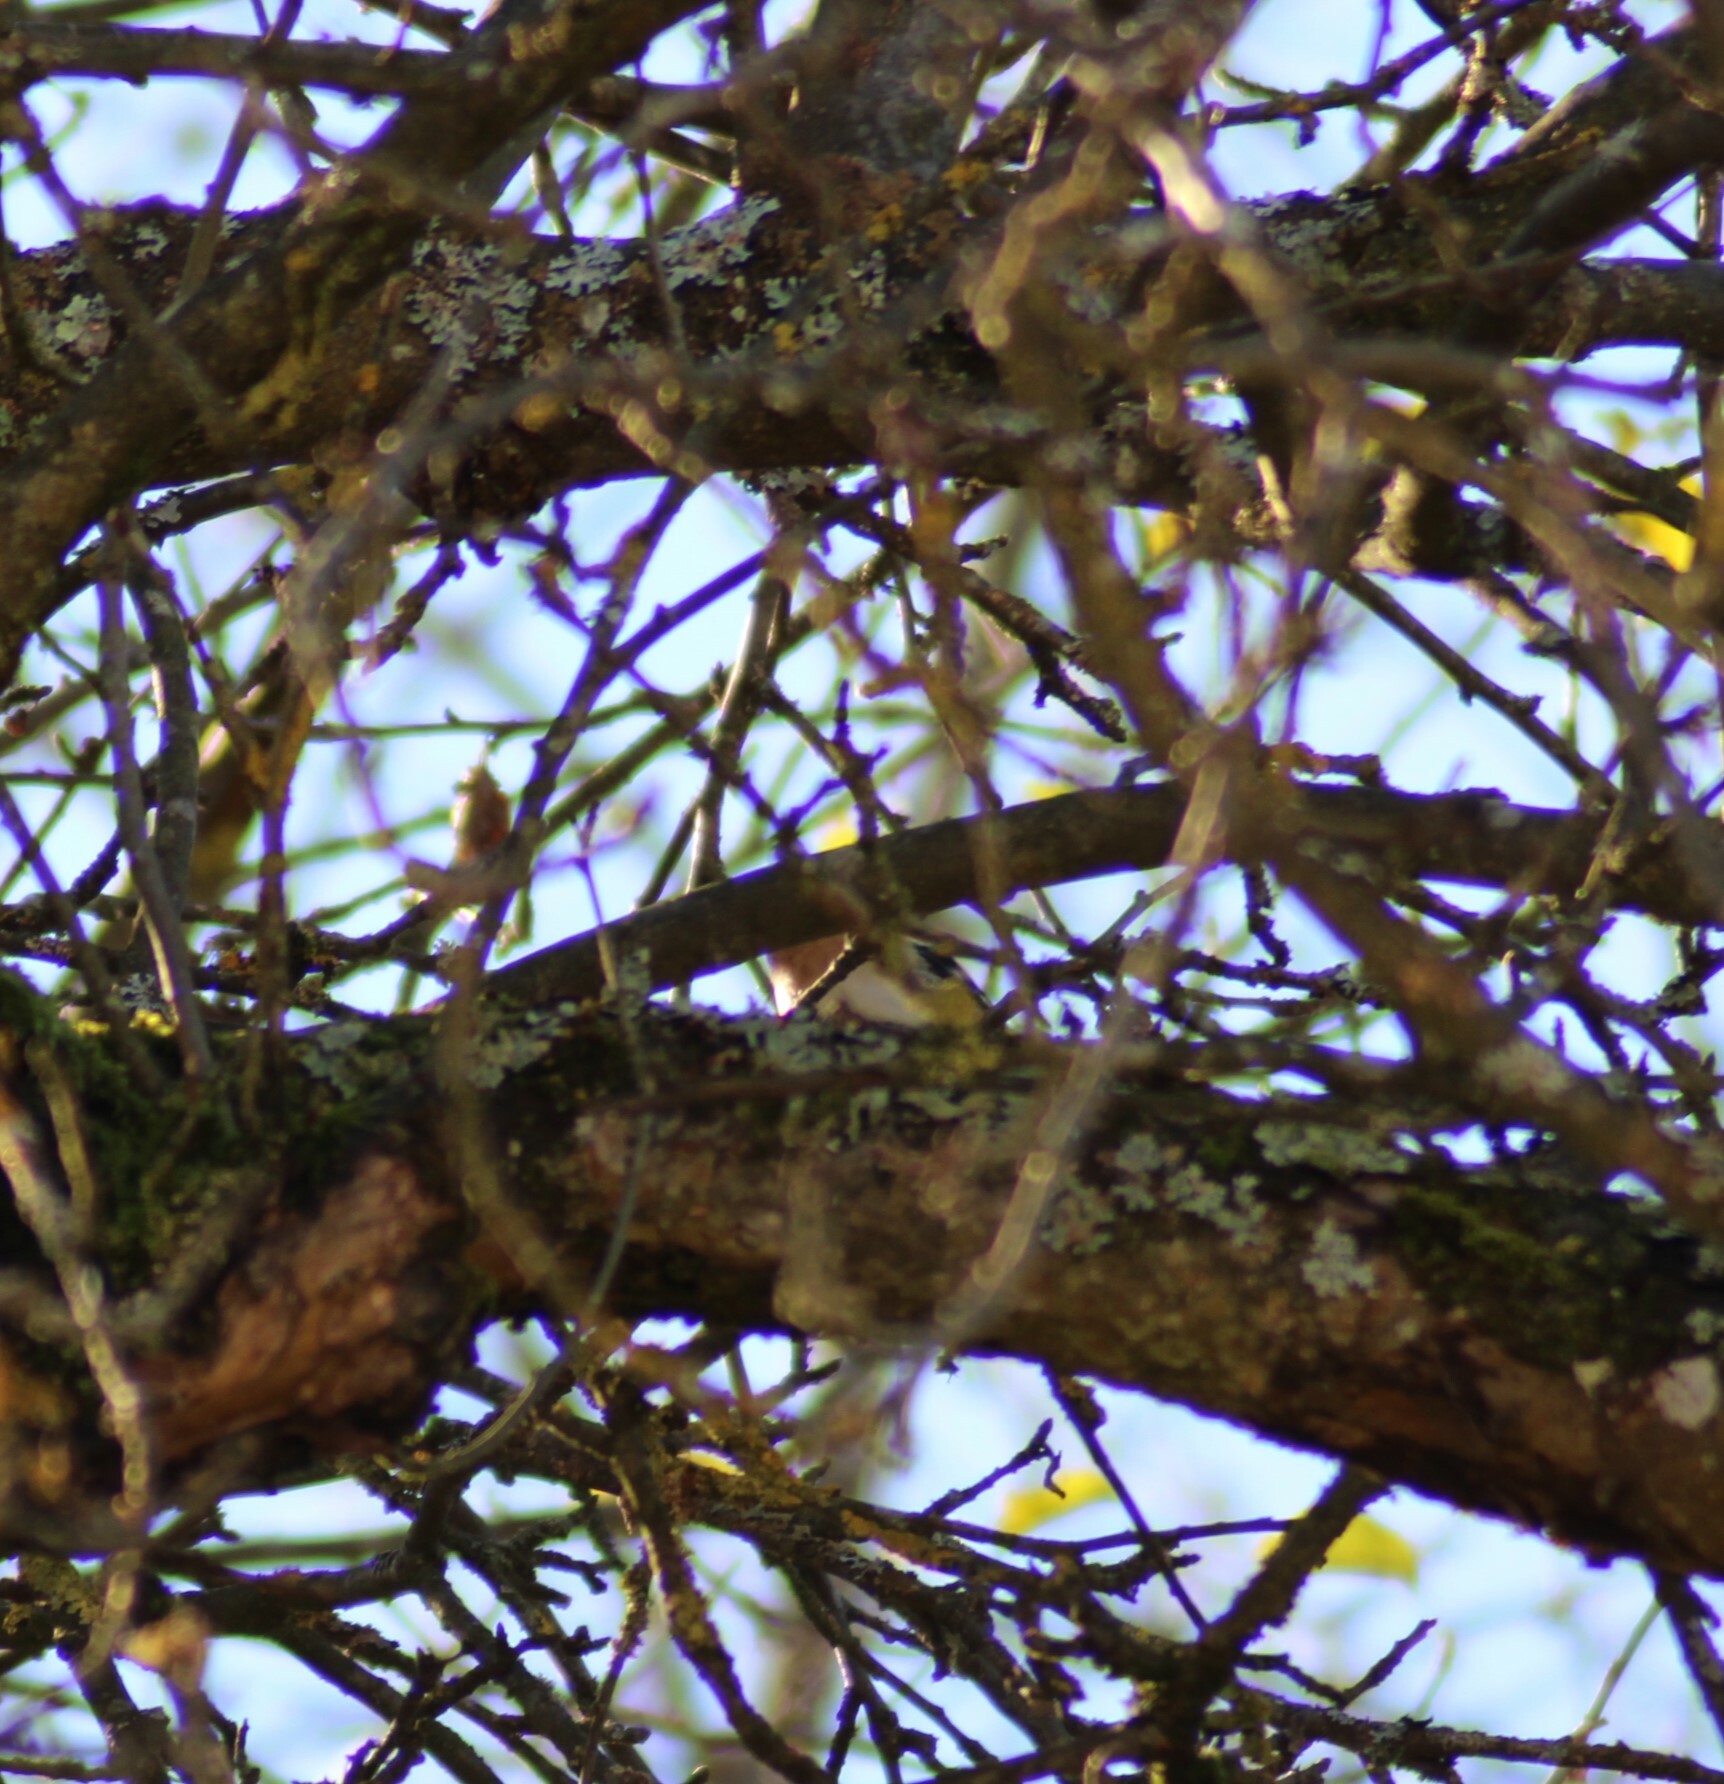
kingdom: Animalia
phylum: Chordata
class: Aves
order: Passeriformes
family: Fringillidae
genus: Fringilla
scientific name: Fringilla montifringilla
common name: Brambling
